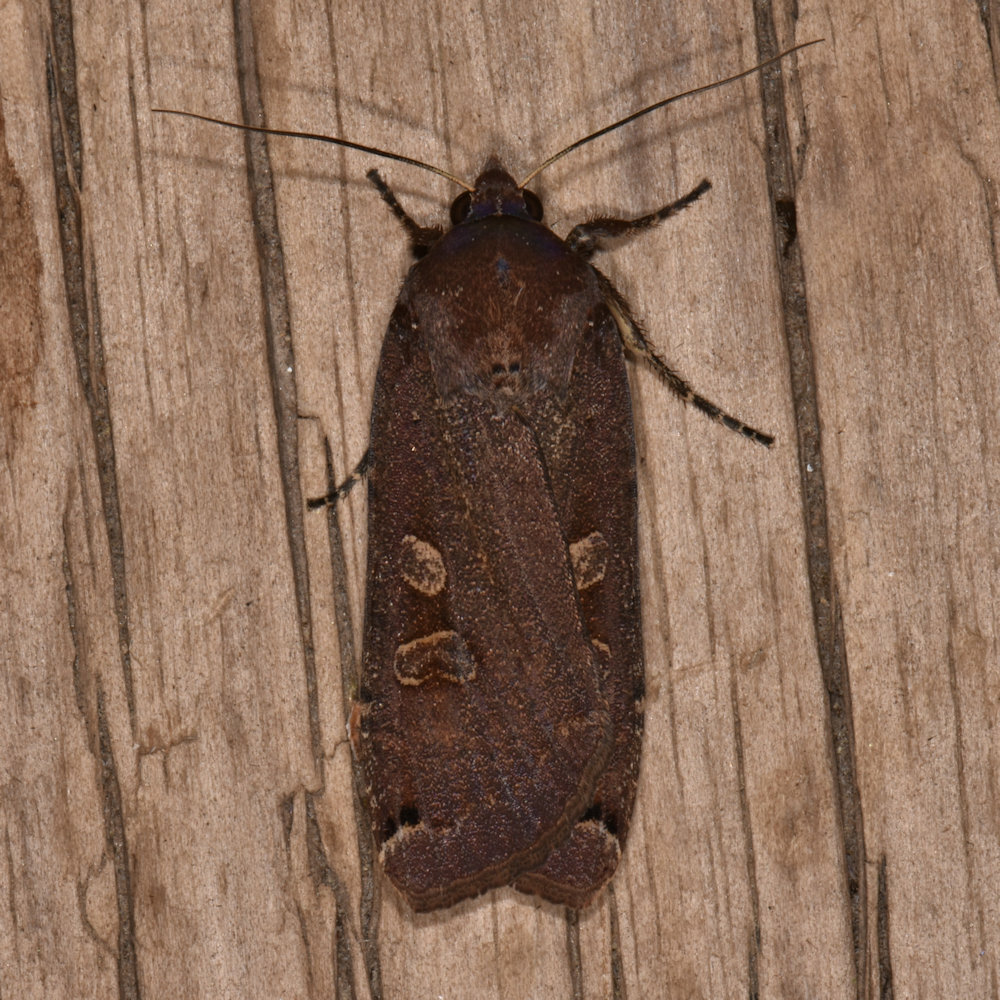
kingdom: Animalia
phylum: Arthropoda
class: Insecta
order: Lepidoptera
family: Noctuidae
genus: Noctua
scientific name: Noctua pronuba
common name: Large yellow underwing
